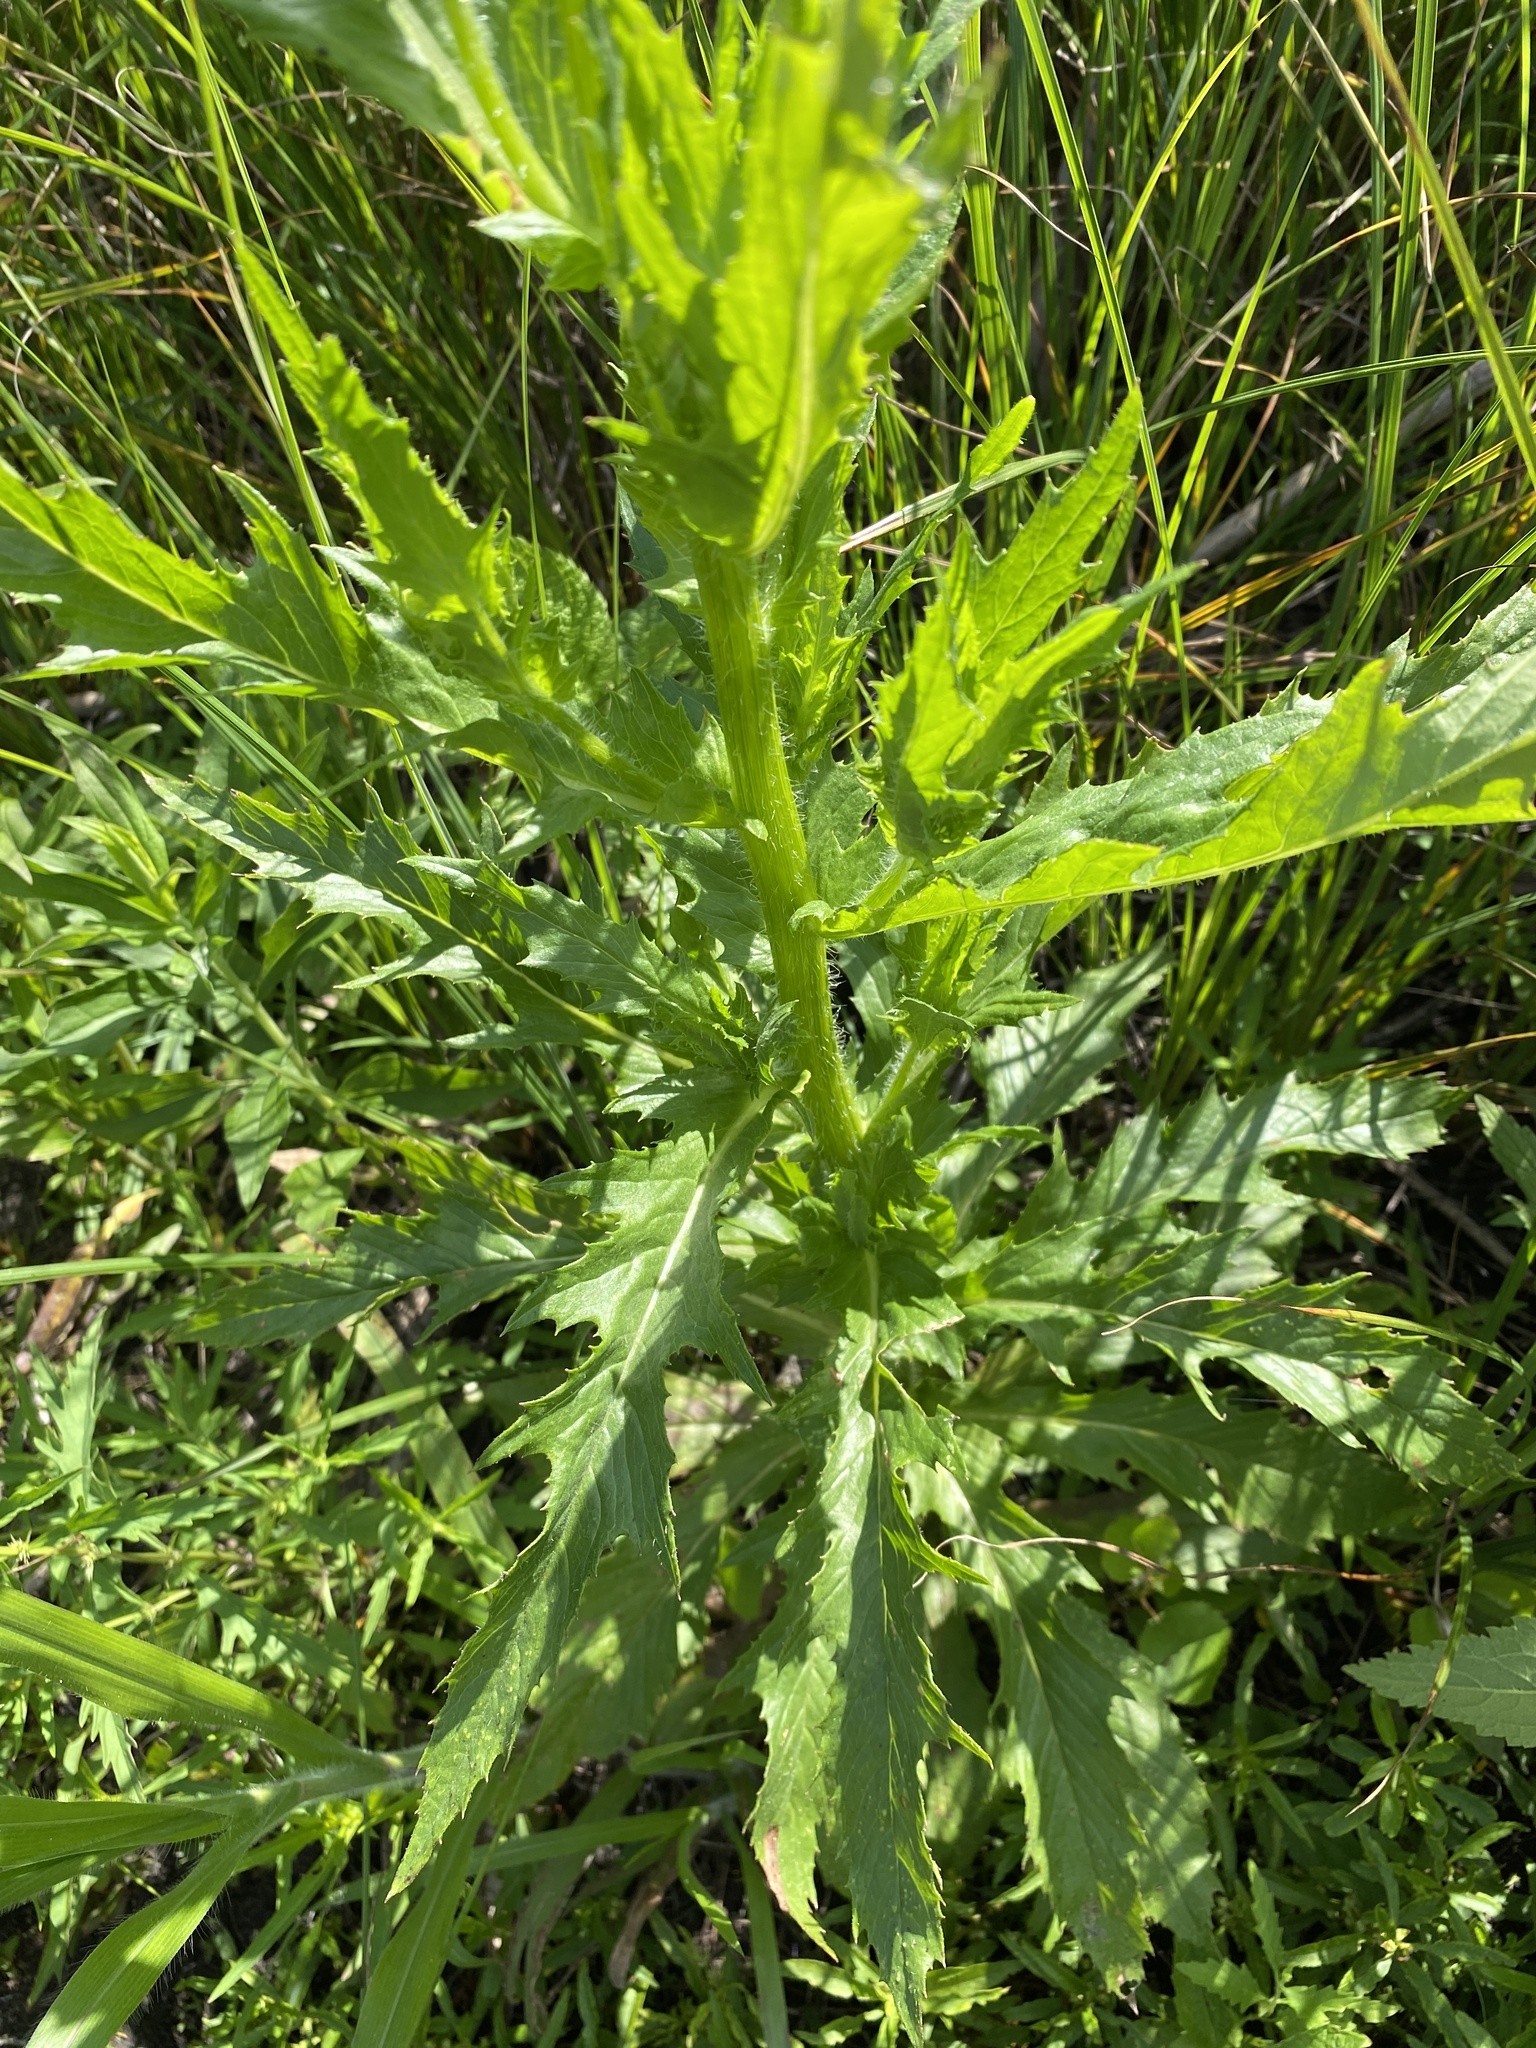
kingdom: Plantae
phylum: Tracheophyta
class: Magnoliopsida
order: Asterales
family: Asteraceae
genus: Erechtites
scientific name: Erechtites hieraciifolius
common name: American burnweed
